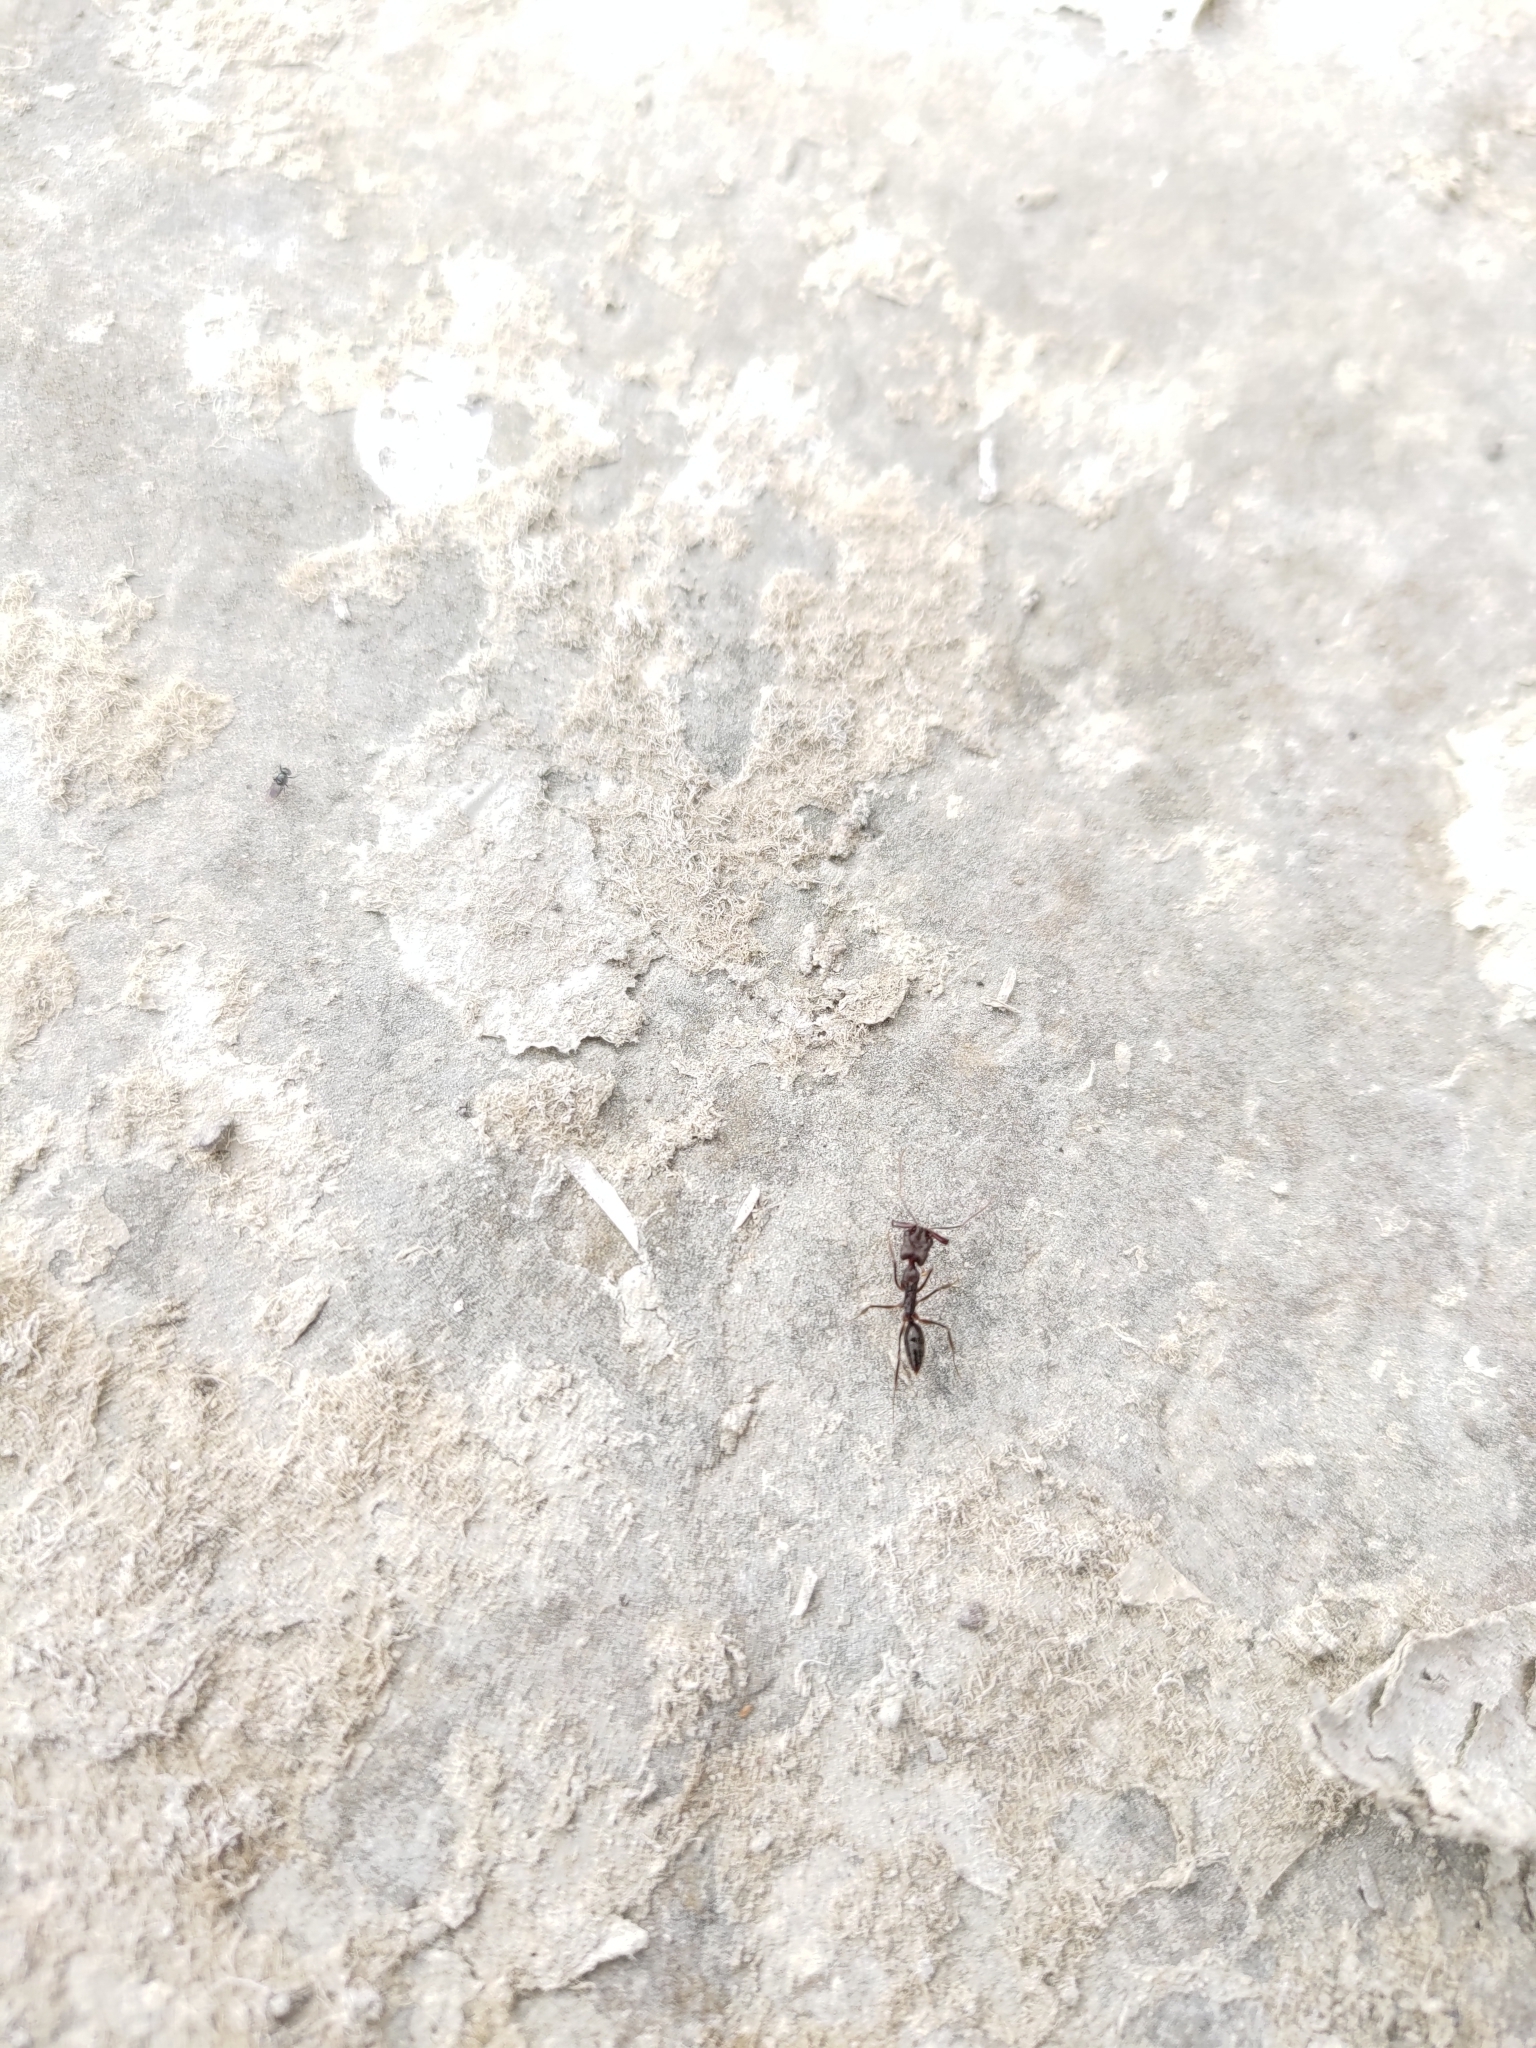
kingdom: Animalia
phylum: Arthropoda
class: Insecta
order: Hymenoptera
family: Formicidae
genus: Odontomachus
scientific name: Odontomachus troglodytes
